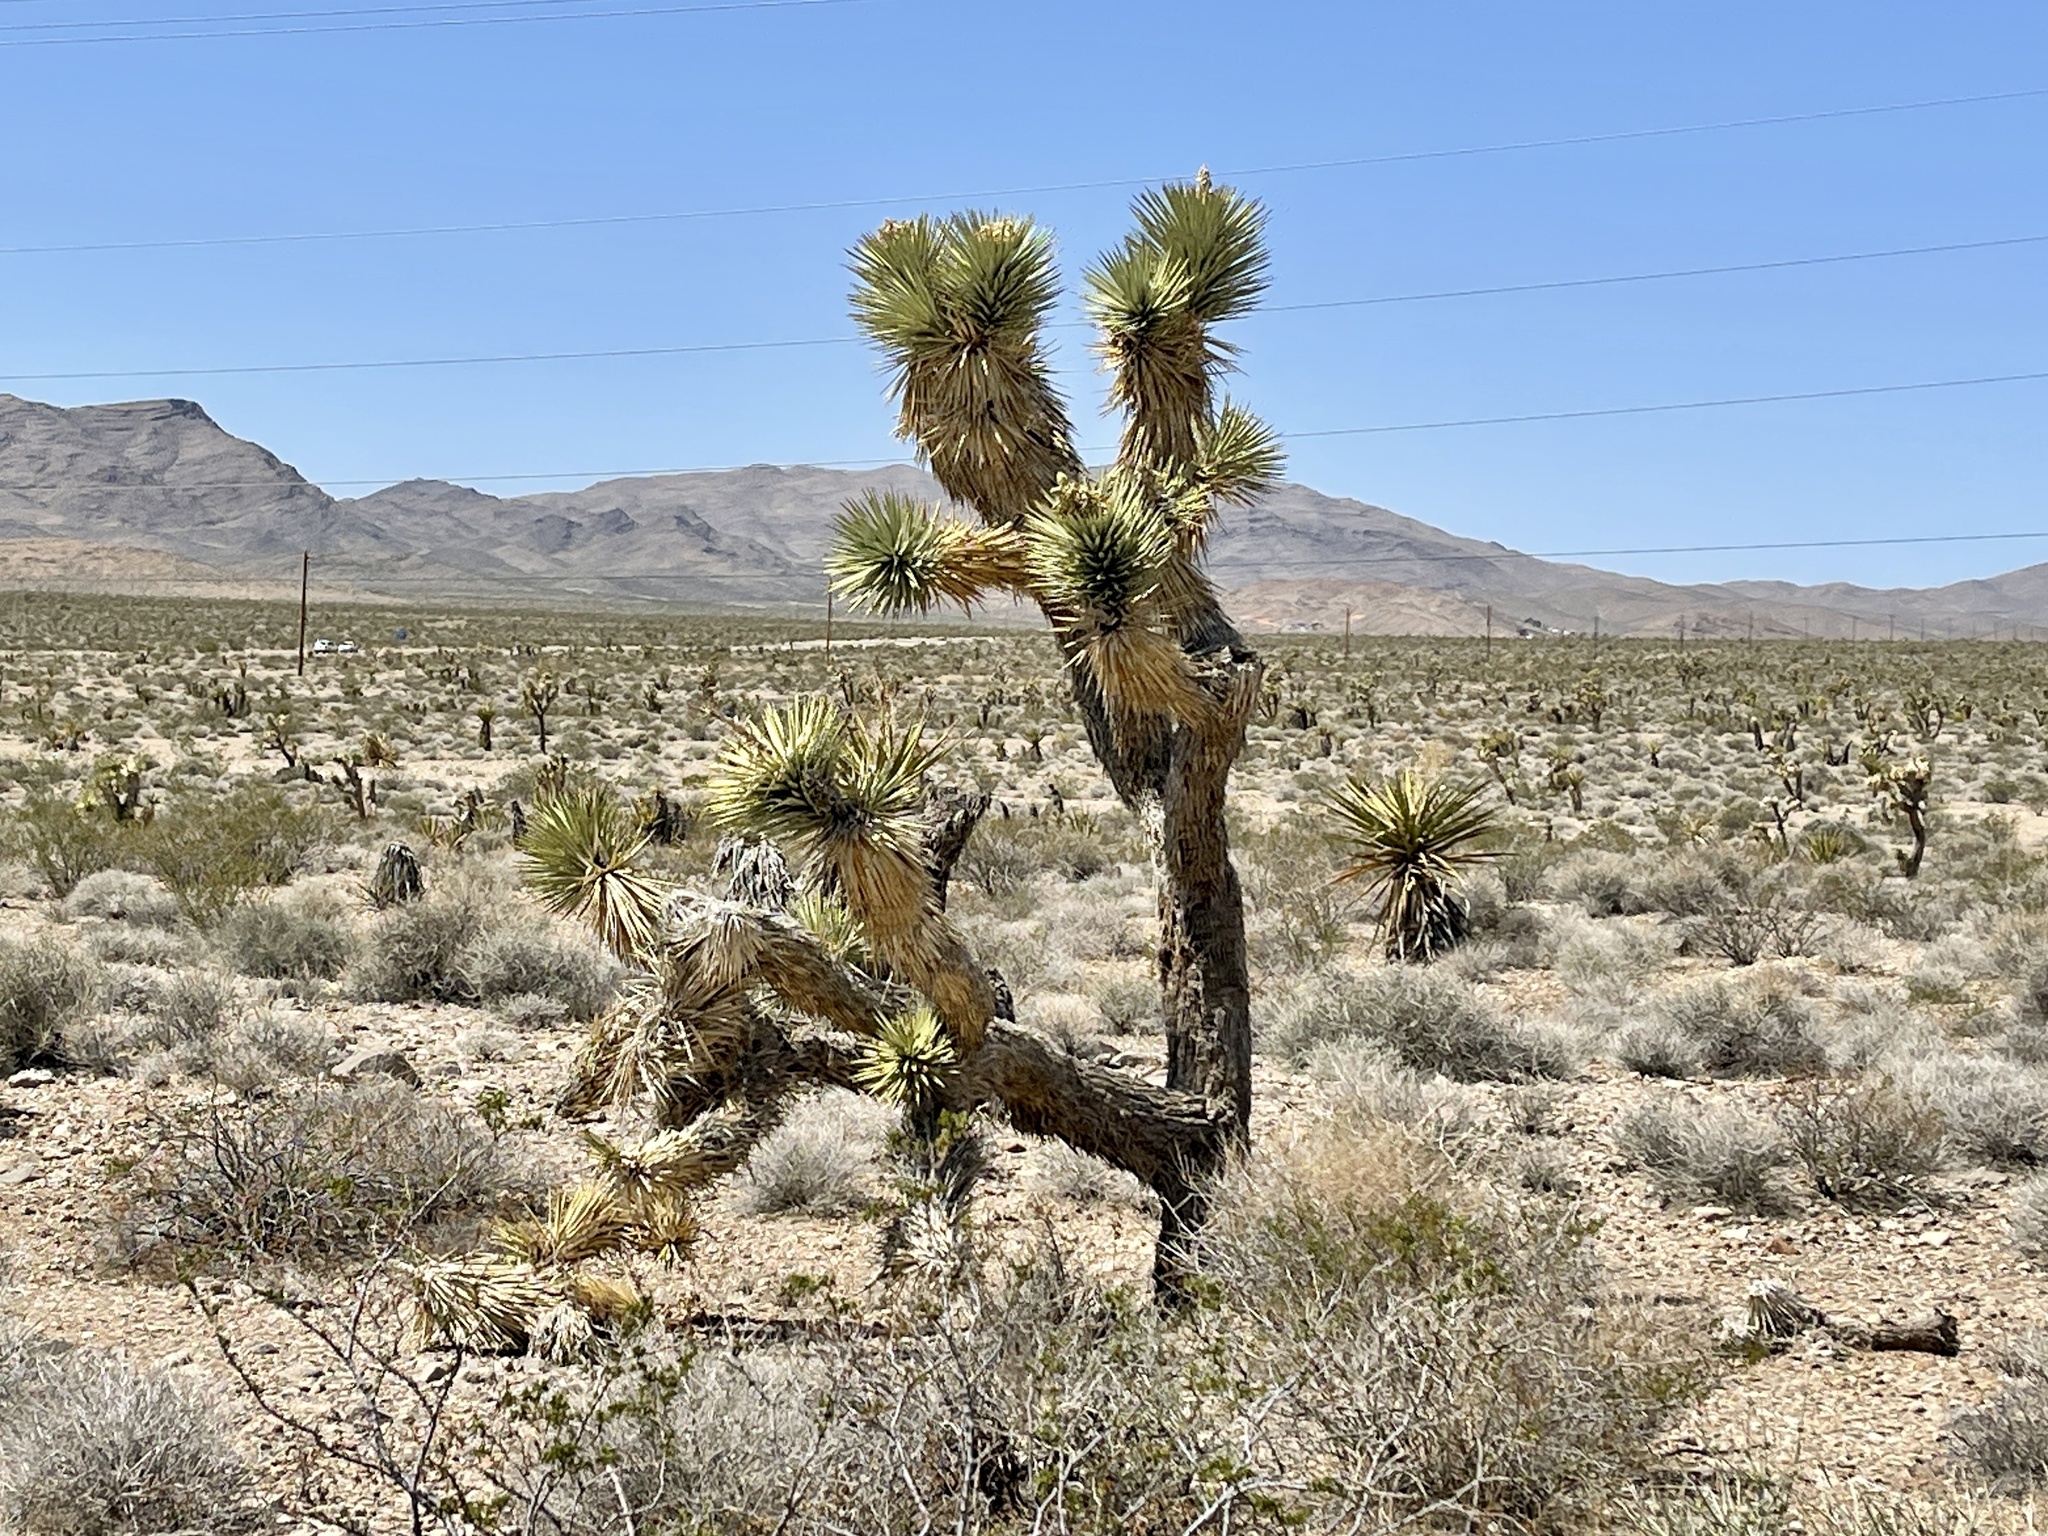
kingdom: Plantae
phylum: Tracheophyta
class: Liliopsida
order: Asparagales
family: Asparagaceae
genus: Yucca
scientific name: Yucca brevifolia
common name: Joshua tree
